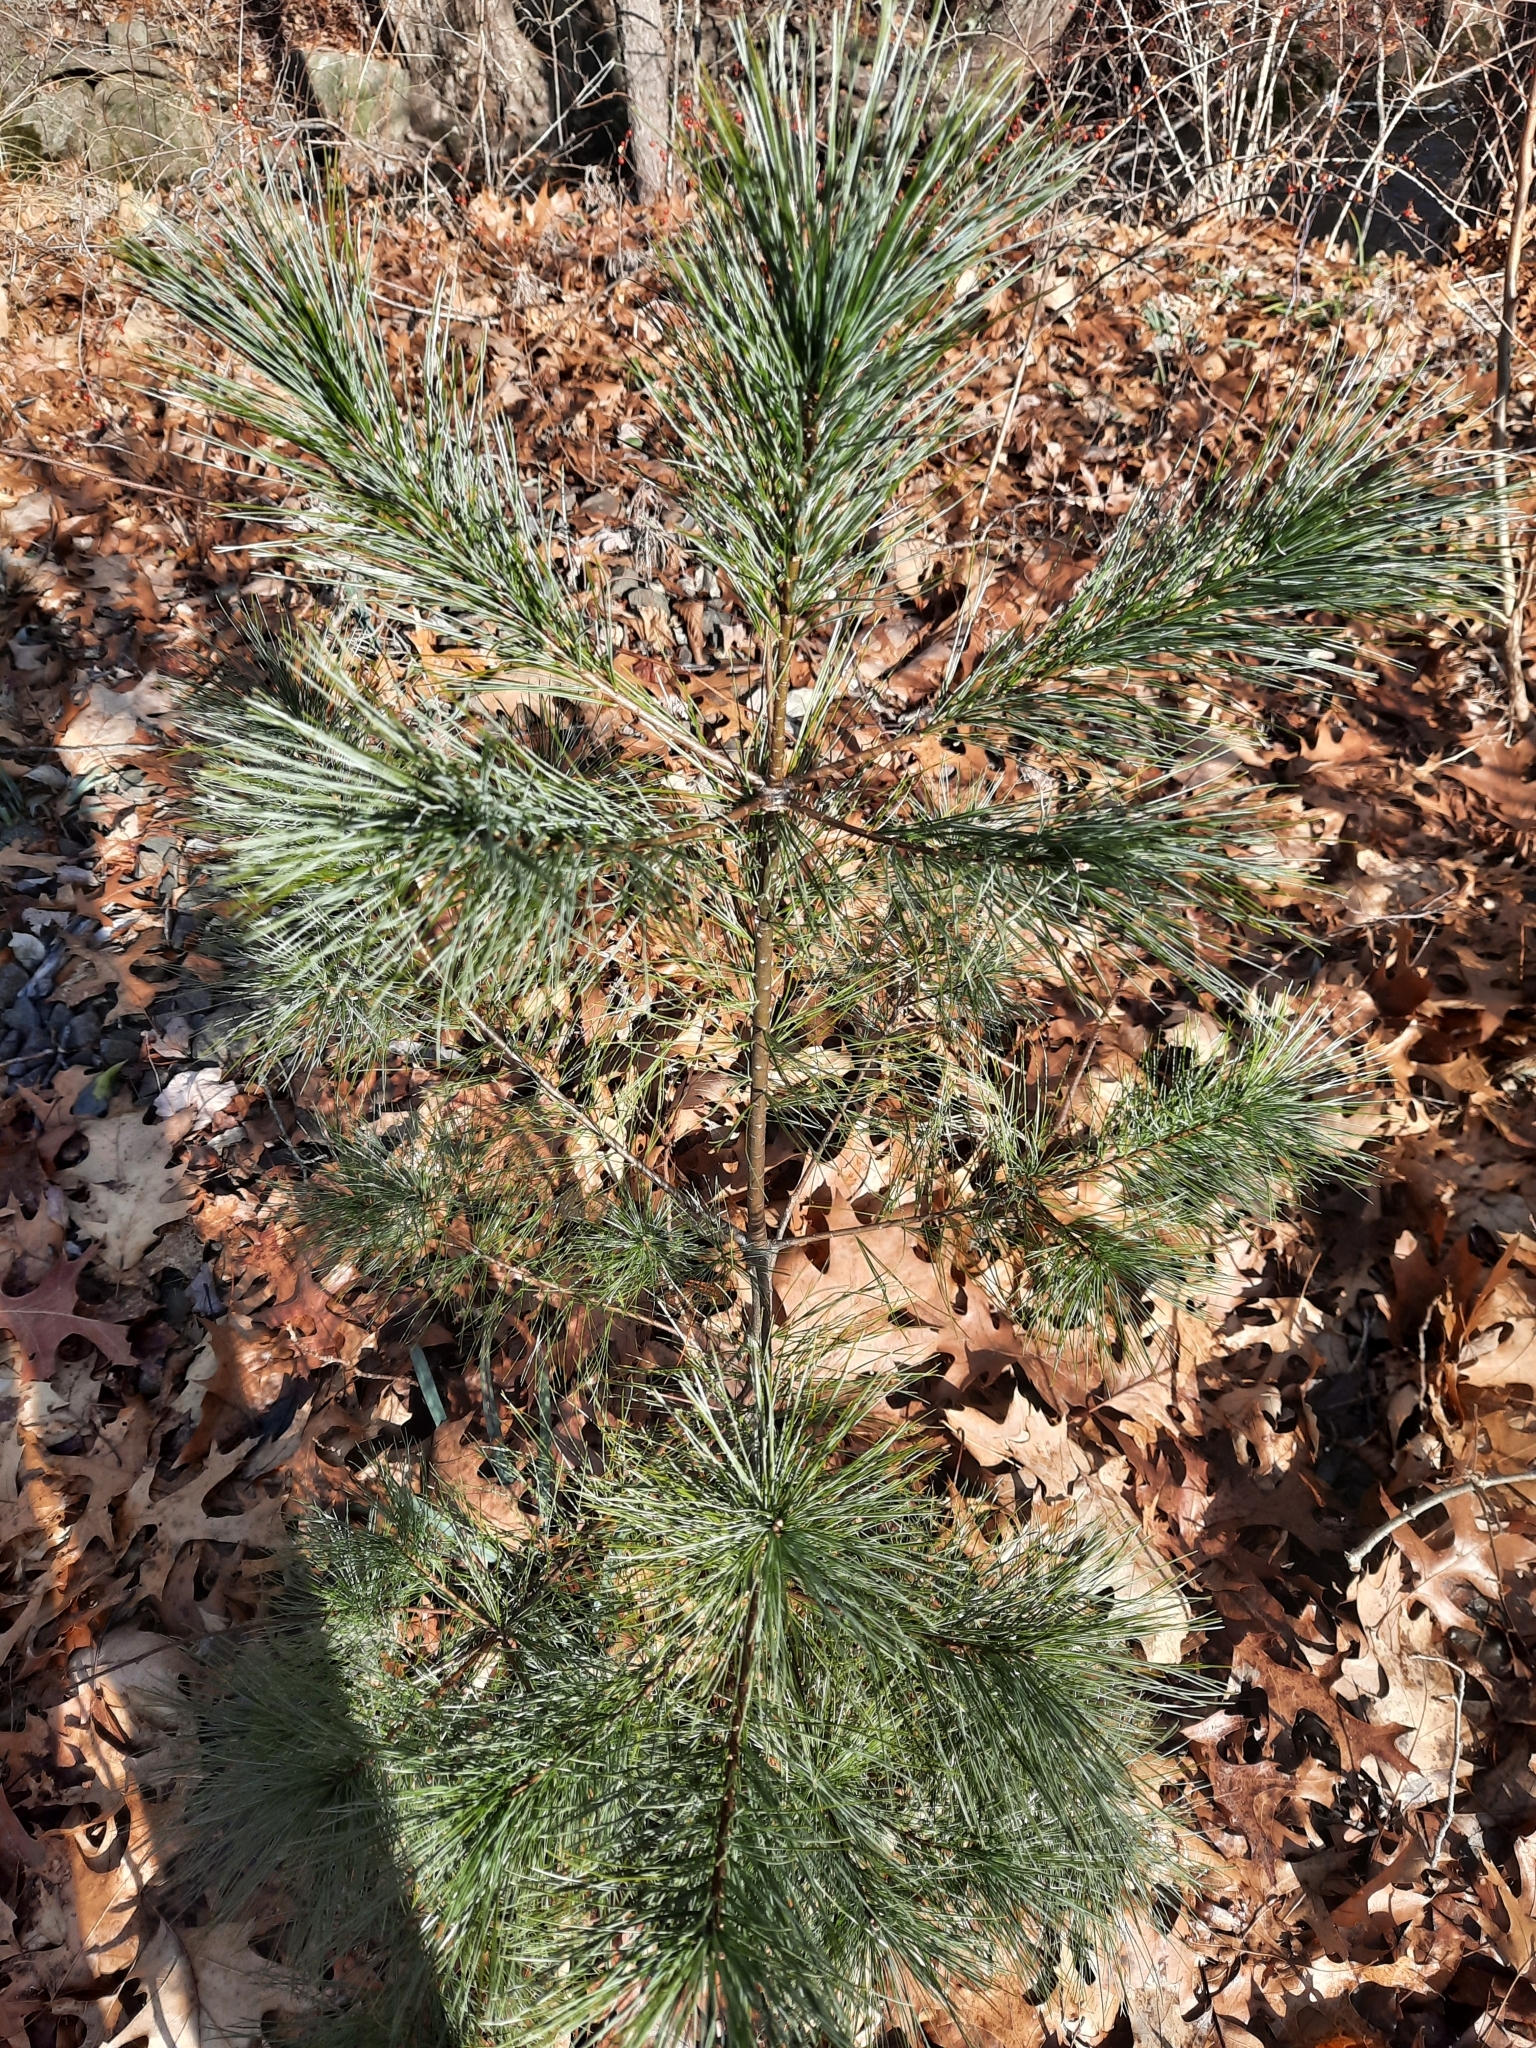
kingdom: Plantae
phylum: Tracheophyta
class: Pinopsida
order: Pinales
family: Pinaceae
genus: Pinus
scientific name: Pinus strobus
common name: Weymouth pine
